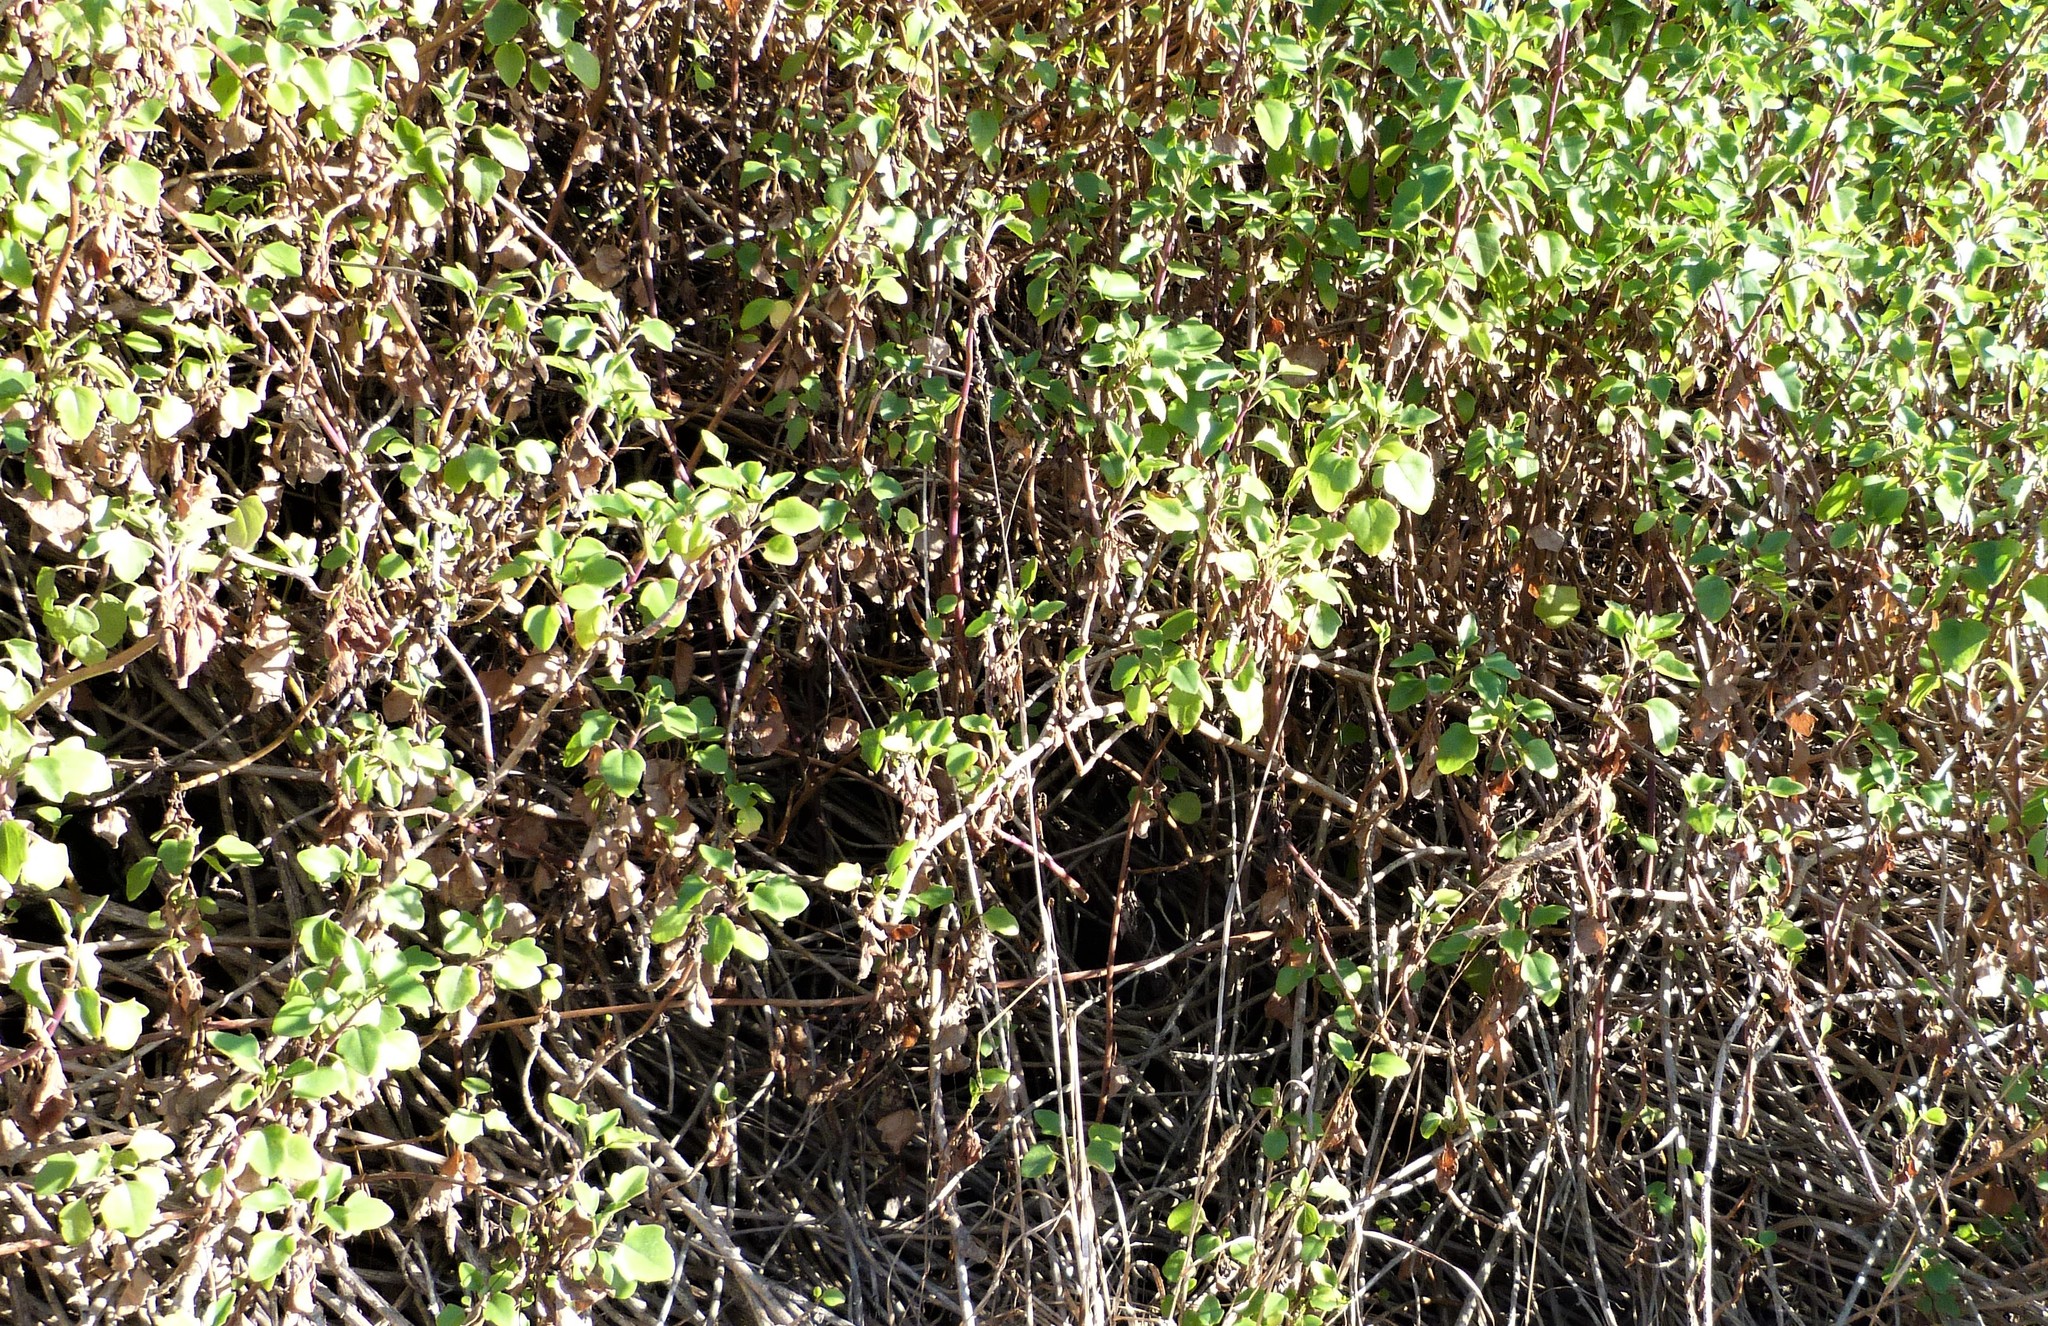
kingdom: Plantae
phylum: Tracheophyta
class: Magnoliopsida
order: Asterales
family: Asteraceae
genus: Delairea
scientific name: Delairea odorata
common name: Cape-ivy
